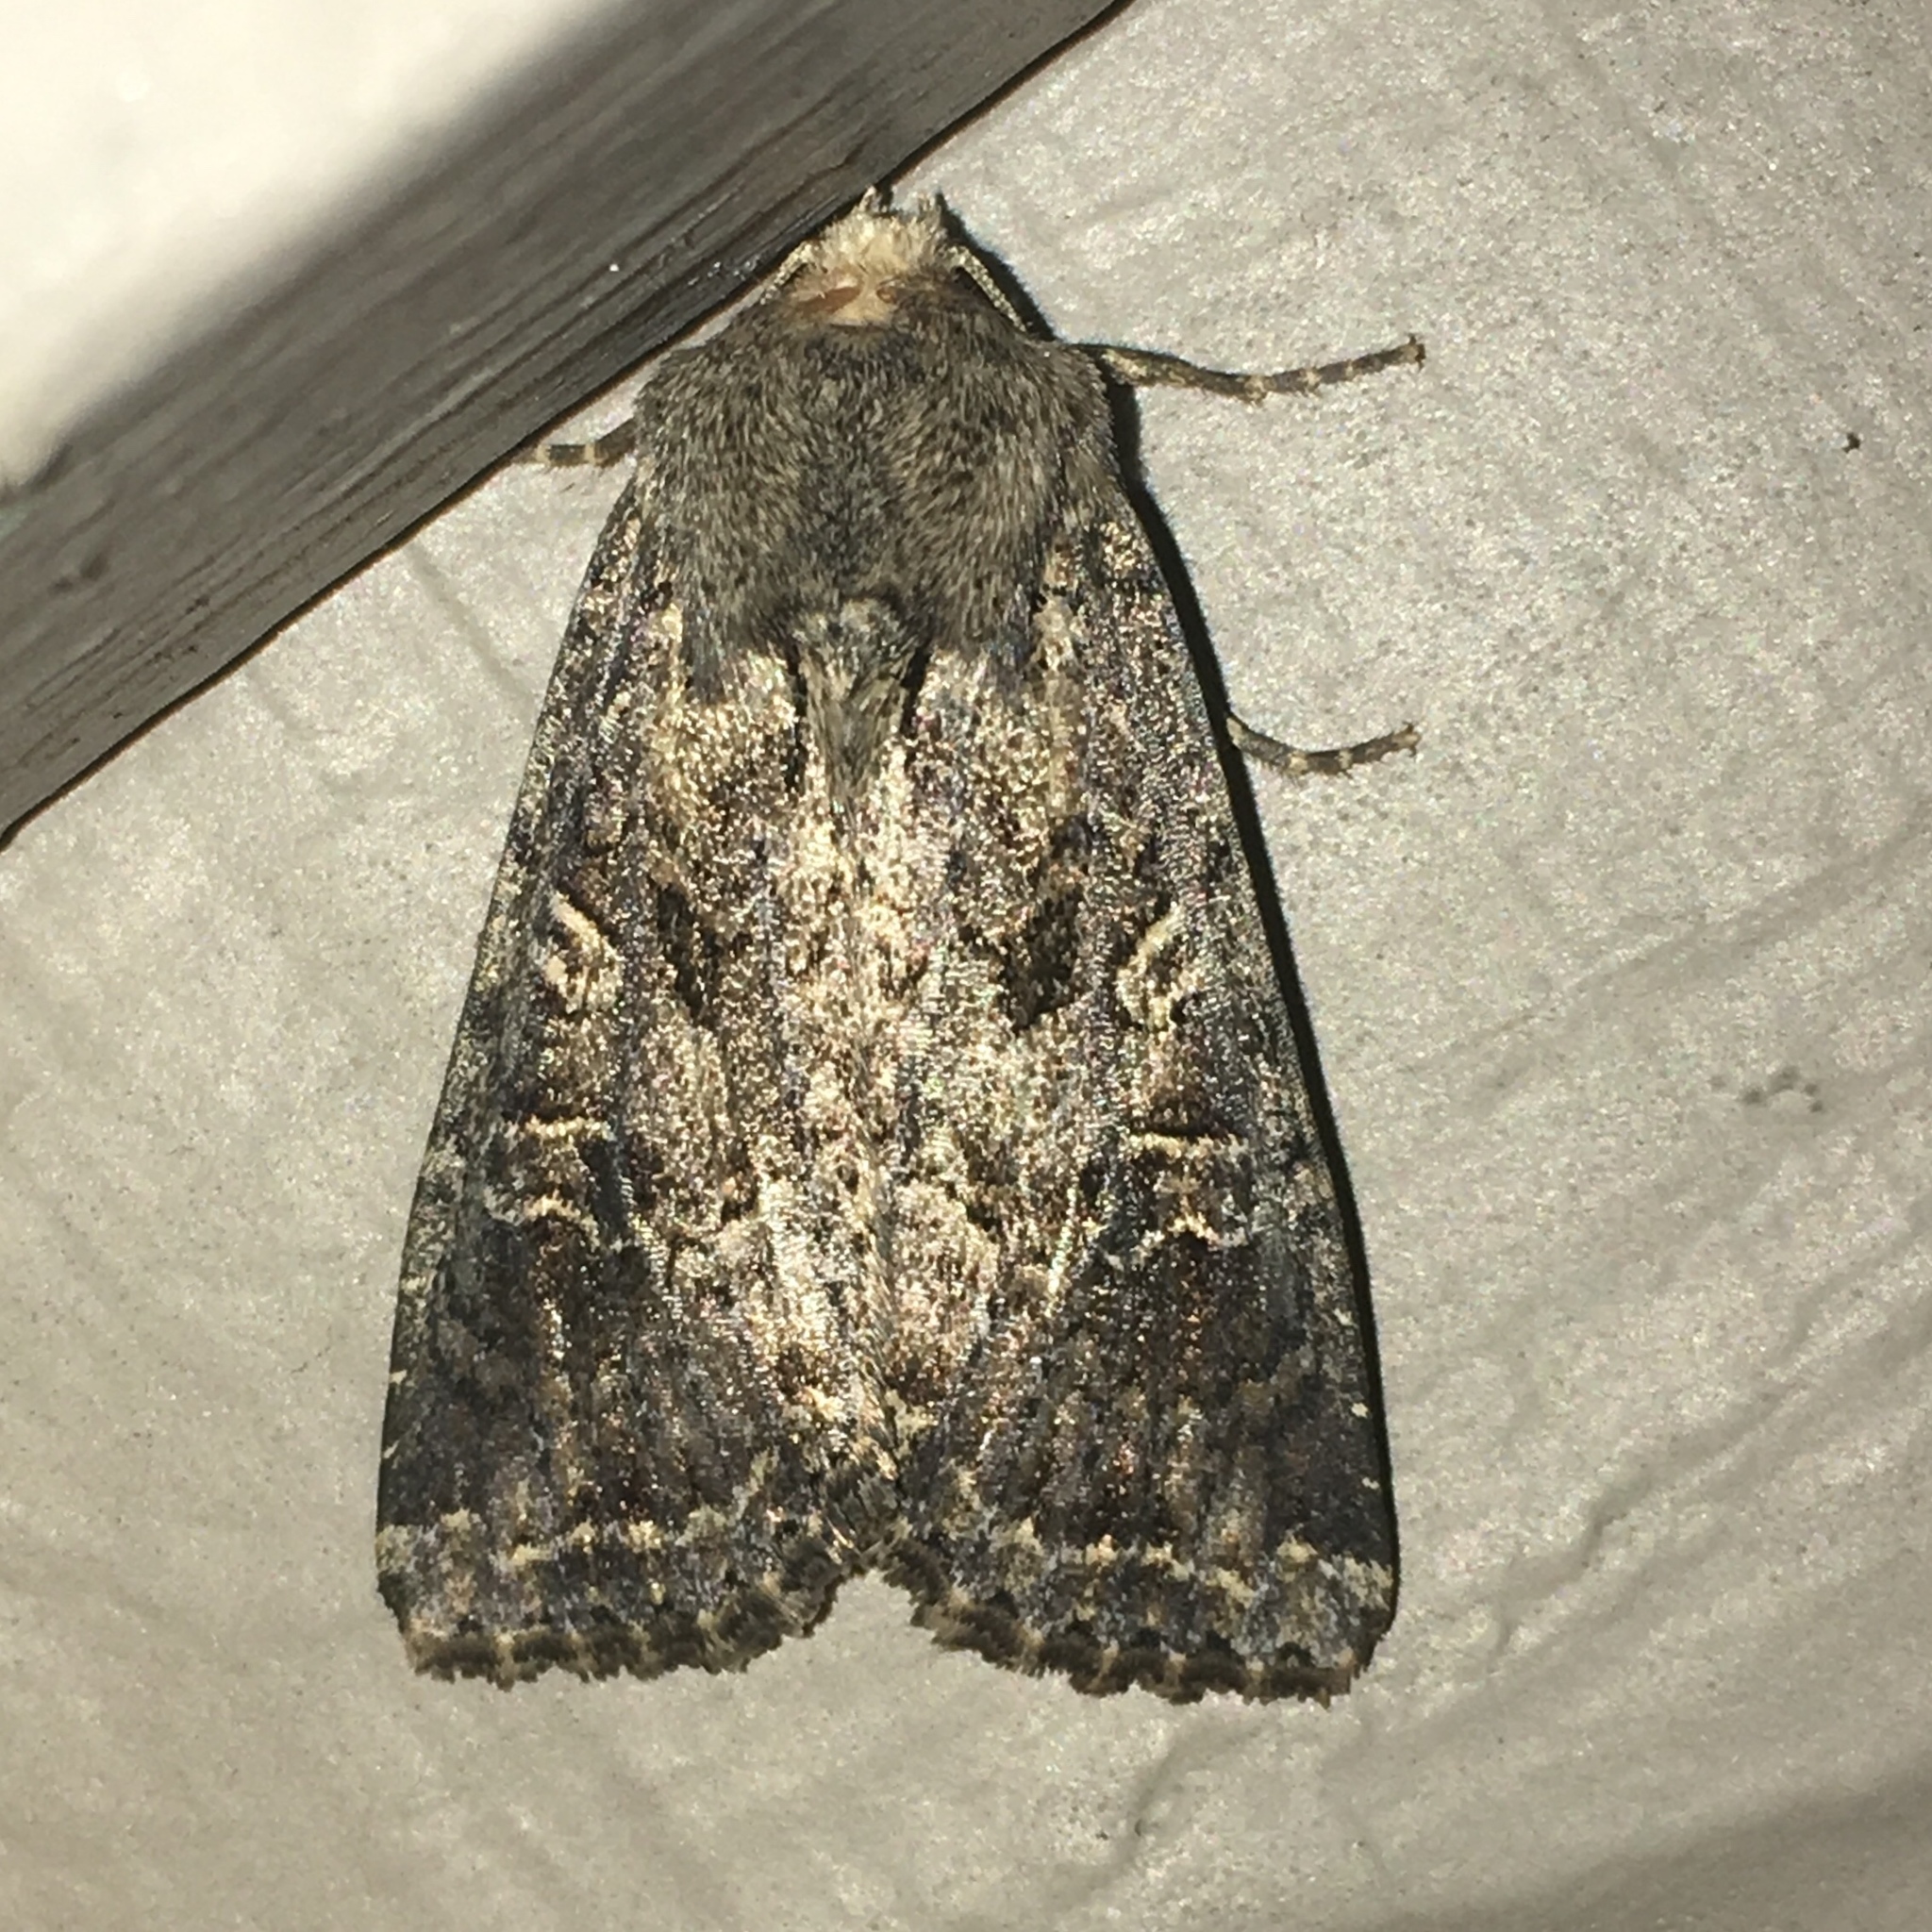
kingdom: Animalia
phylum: Arthropoda
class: Insecta
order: Lepidoptera
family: Noctuidae
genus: Apamea
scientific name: Apamea devastator
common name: Glassy cutworm
